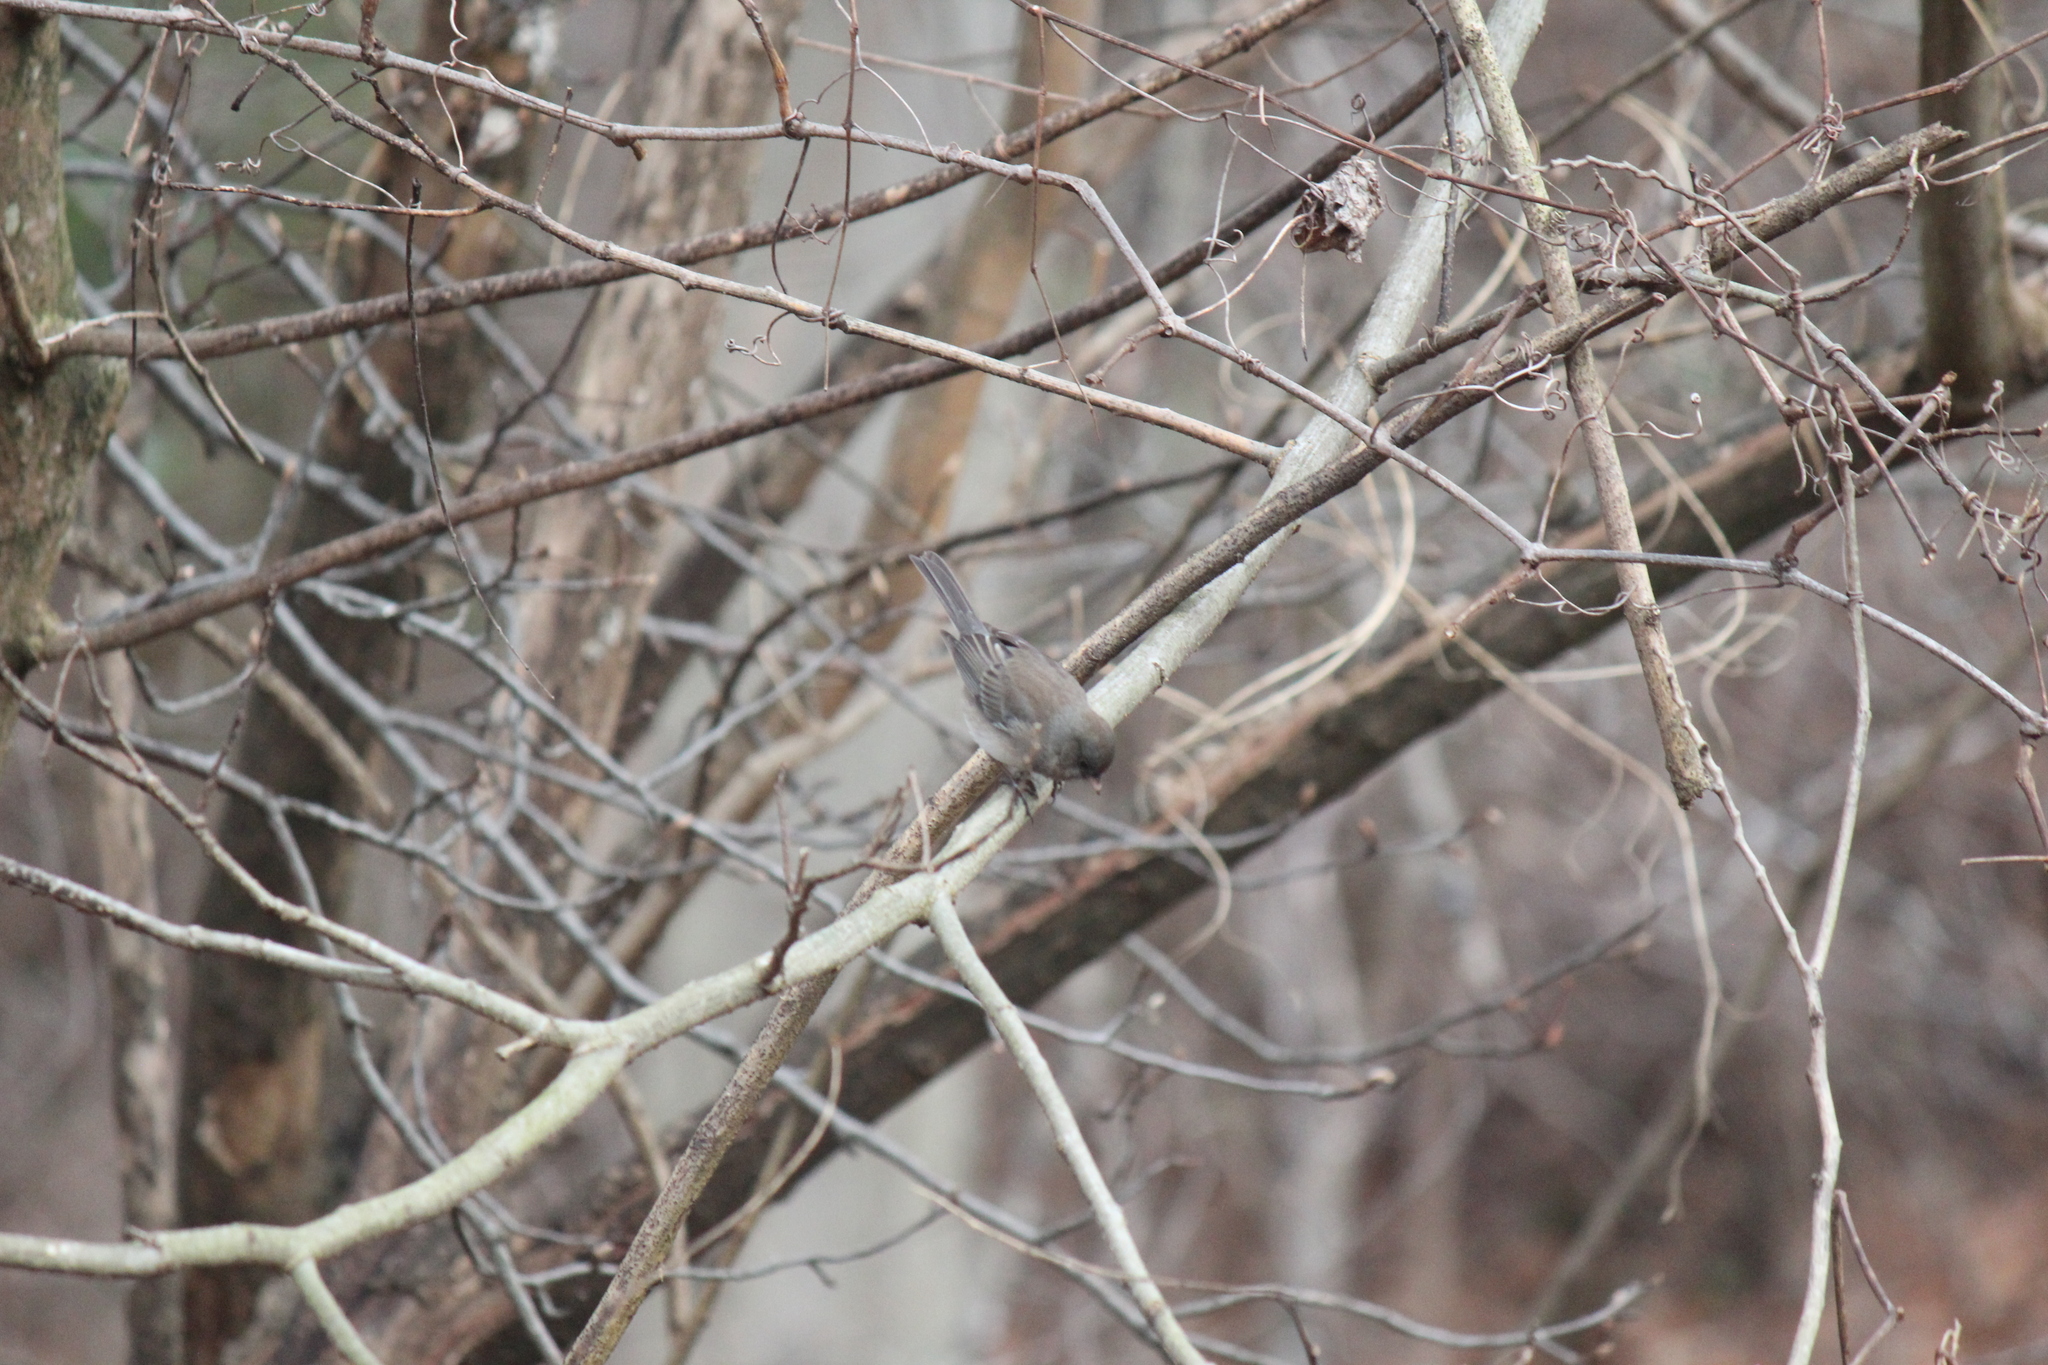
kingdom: Animalia
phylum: Chordata
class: Aves
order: Passeriformes
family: Passerellidae
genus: Junco
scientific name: Junco hyemalis
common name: Dark-eyed junco
